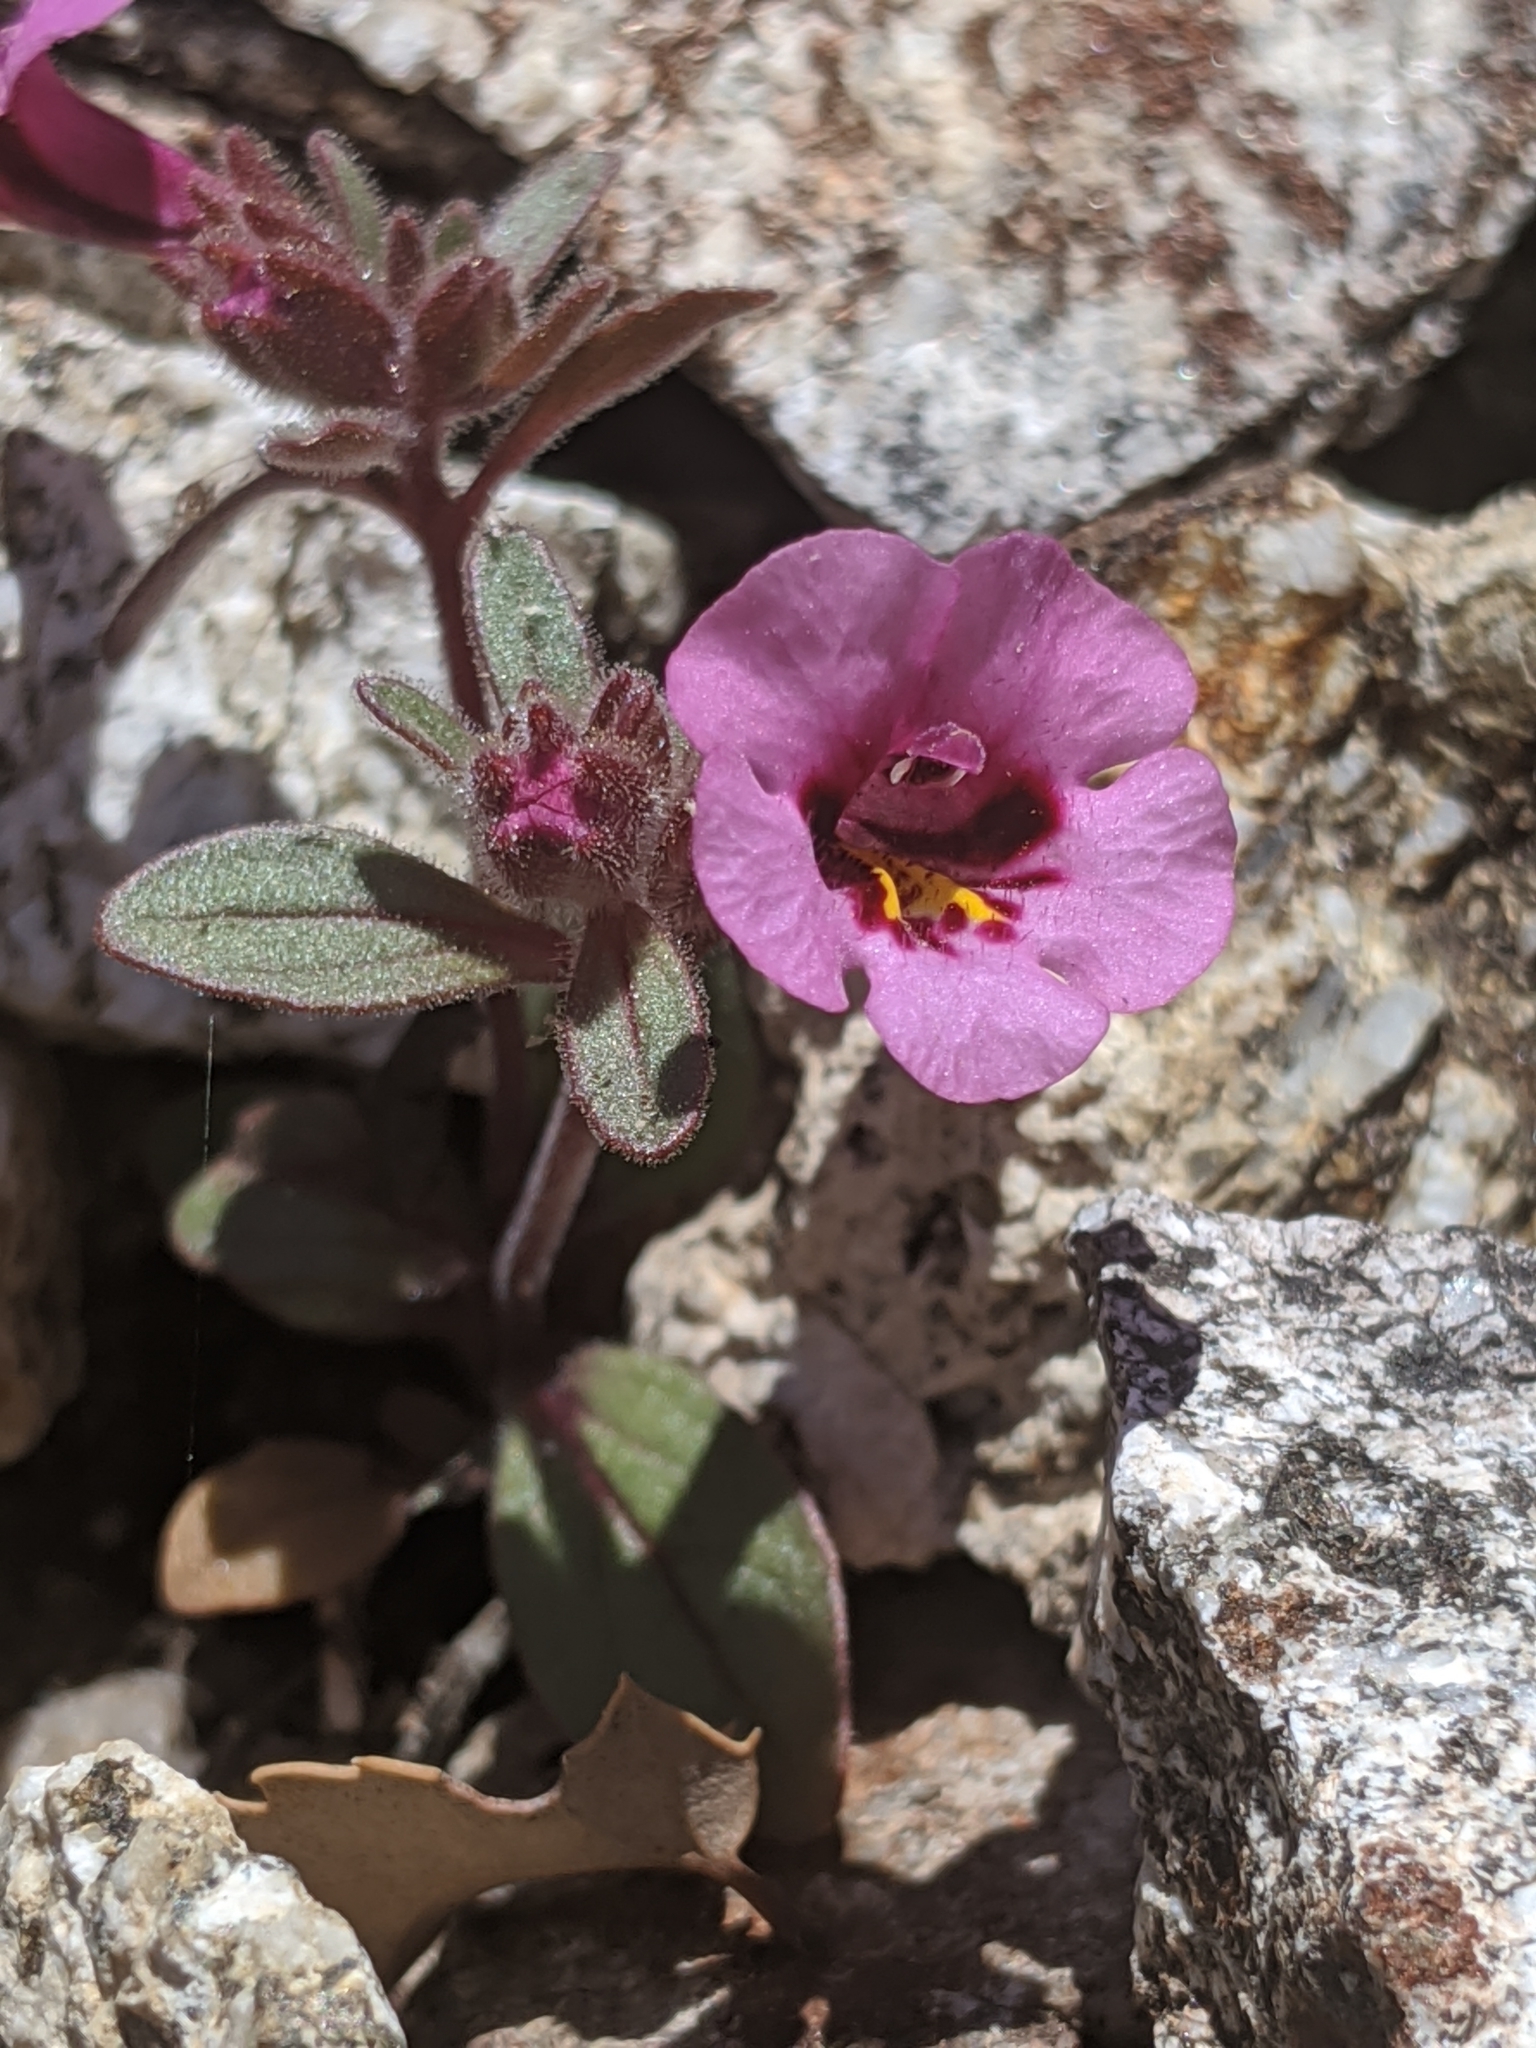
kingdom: Plantae
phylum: Tracheophyta
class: Magnoliopsida
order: Lamiales
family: Phrymaceae
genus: Diplacus
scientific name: Diplacus fremontii
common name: Fremont's monkey-flower
